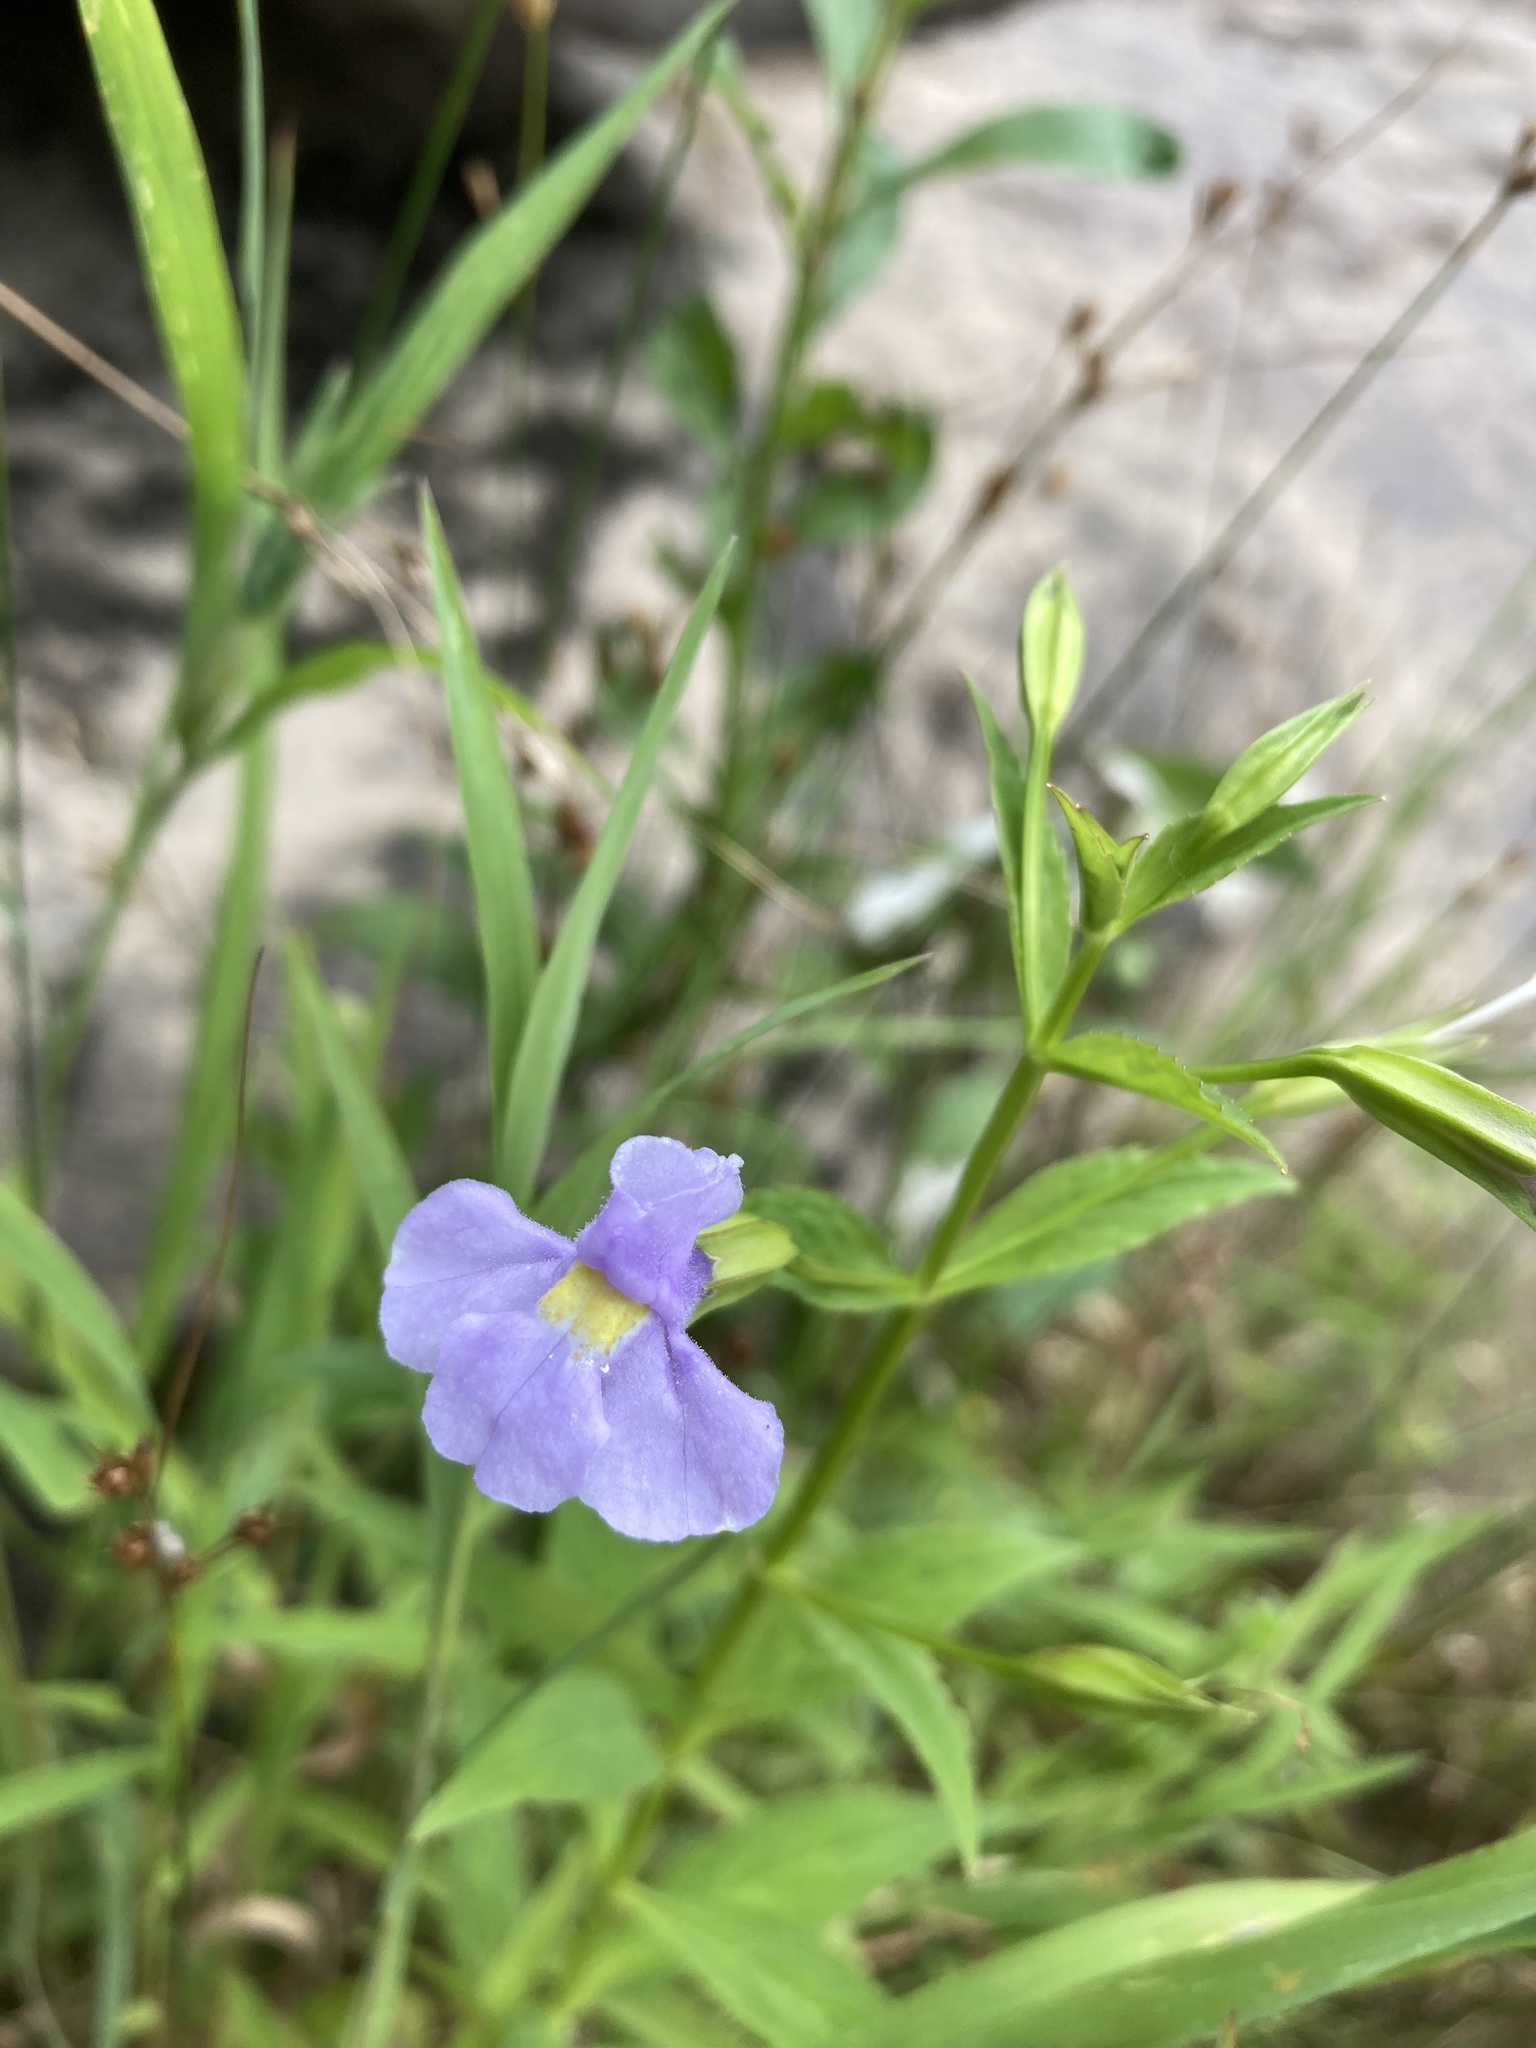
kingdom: Plantae
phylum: Tracheophyta
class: Magnoliopsida
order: Lamiales
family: Phrymaceae
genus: Mimulus
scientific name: Mimulus ringens
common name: Allegheny monkeyflower
